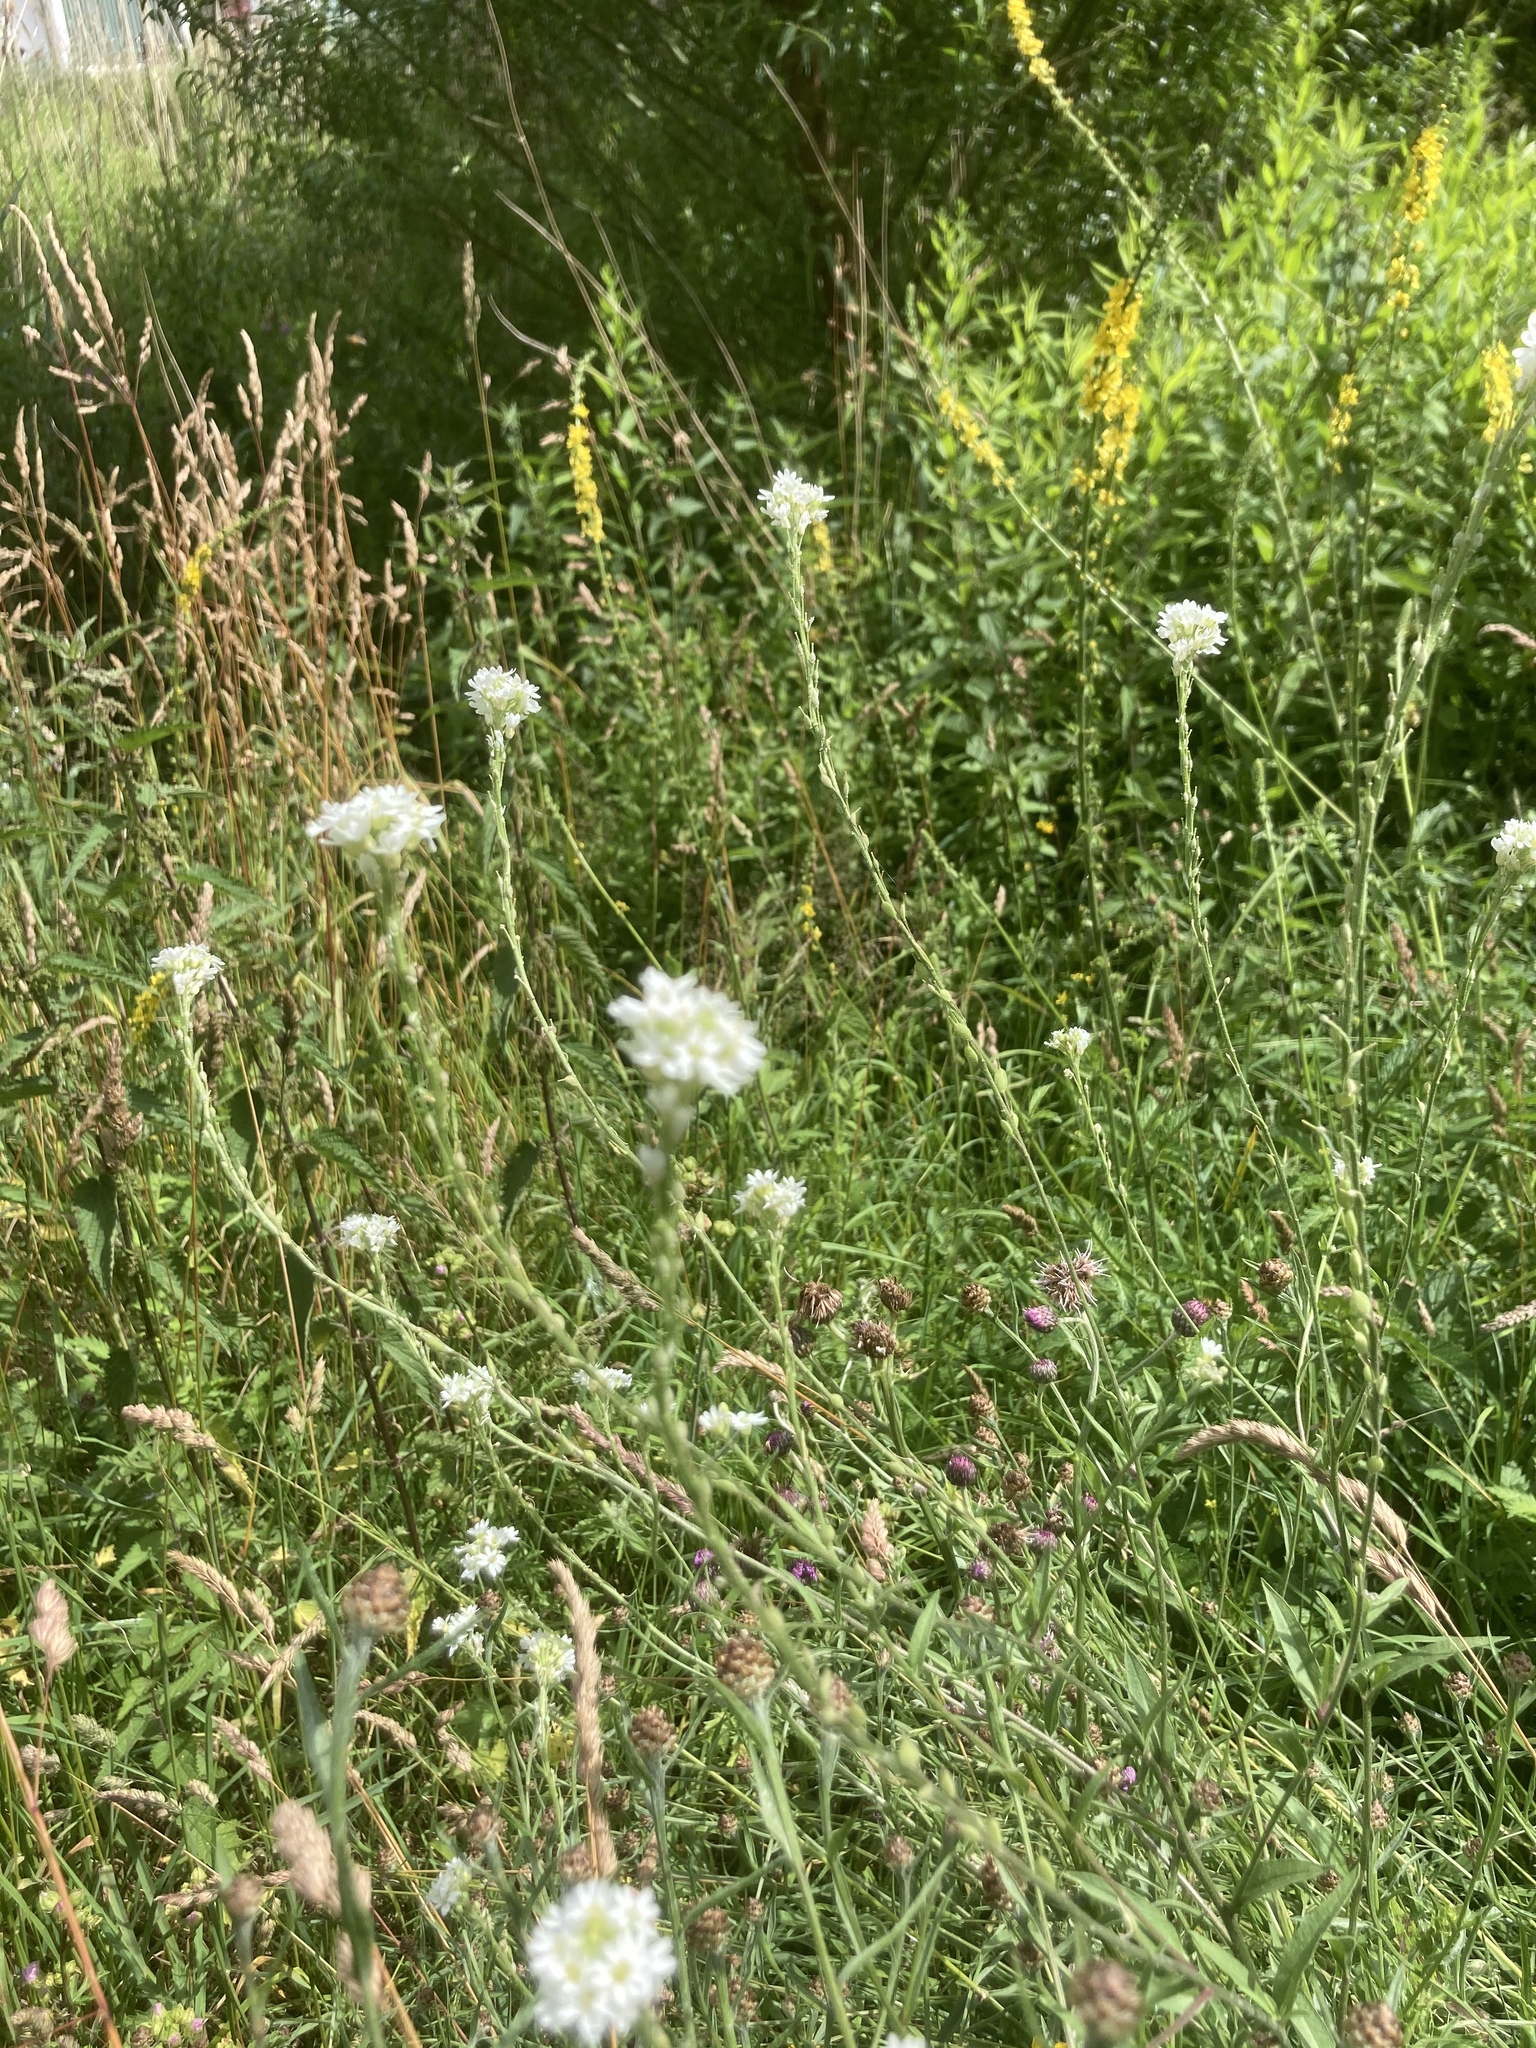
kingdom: Plantae
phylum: Tracheophyta
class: Magnoliopsida
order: Brassicales
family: Brassicaceae
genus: Berteroa
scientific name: Berteroa incana
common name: Hoary alison
